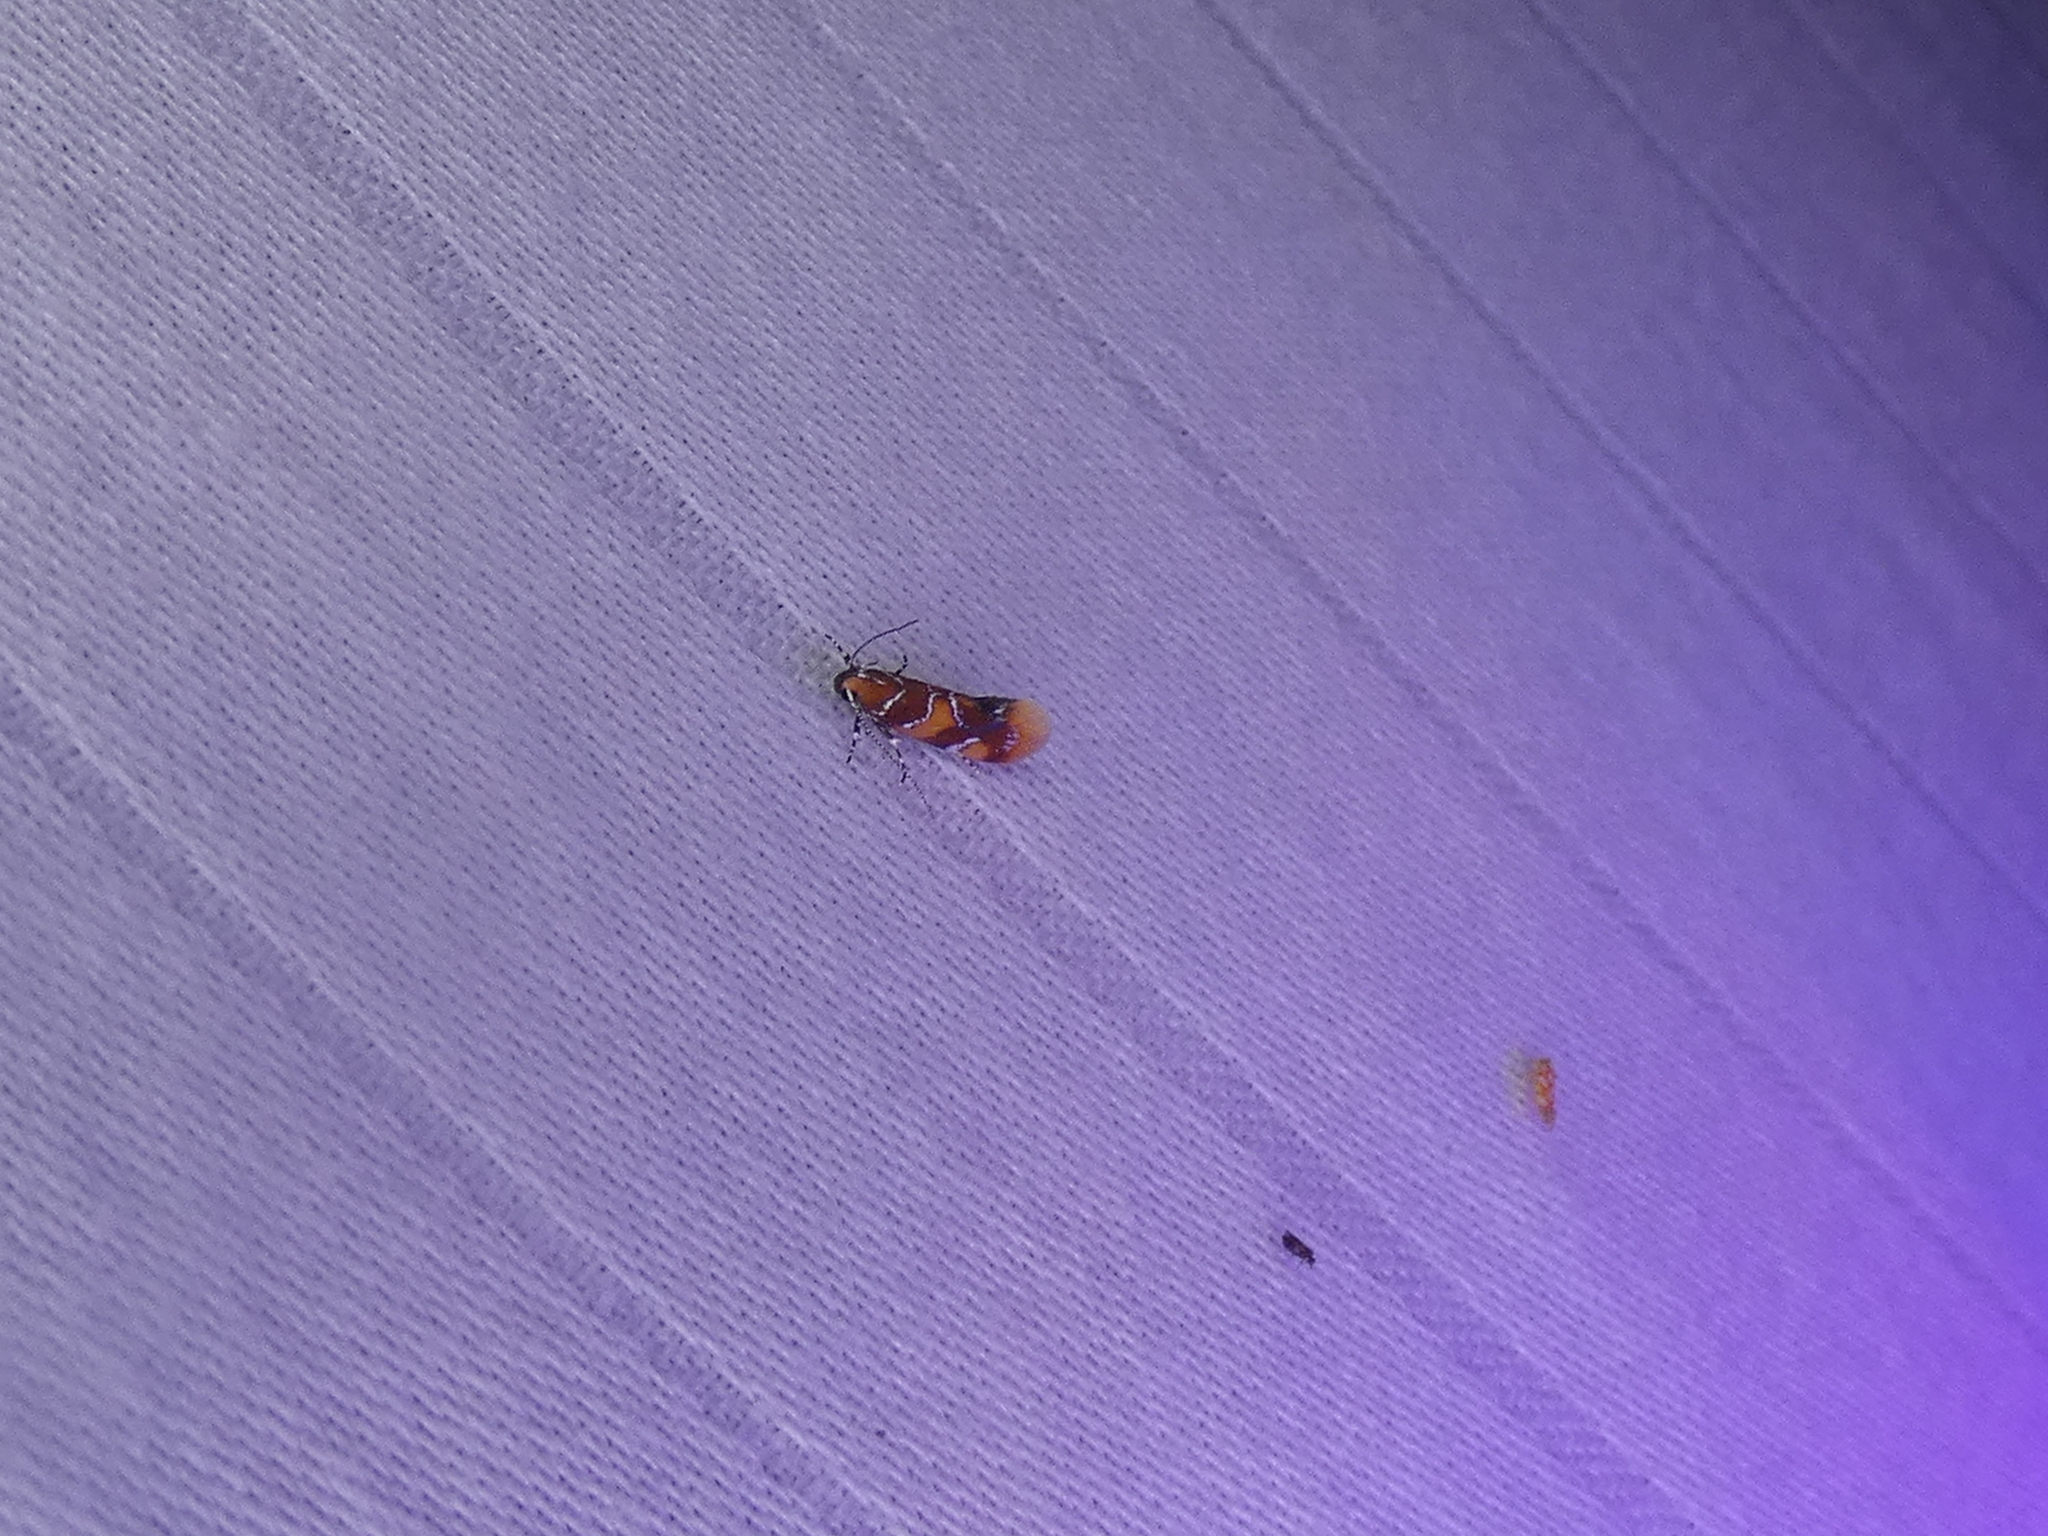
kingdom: Animalia
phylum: Arthropoda
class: Insecta
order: Lepidoptera
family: Oecophoridae
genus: Callima
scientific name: Callima argenticinctella
